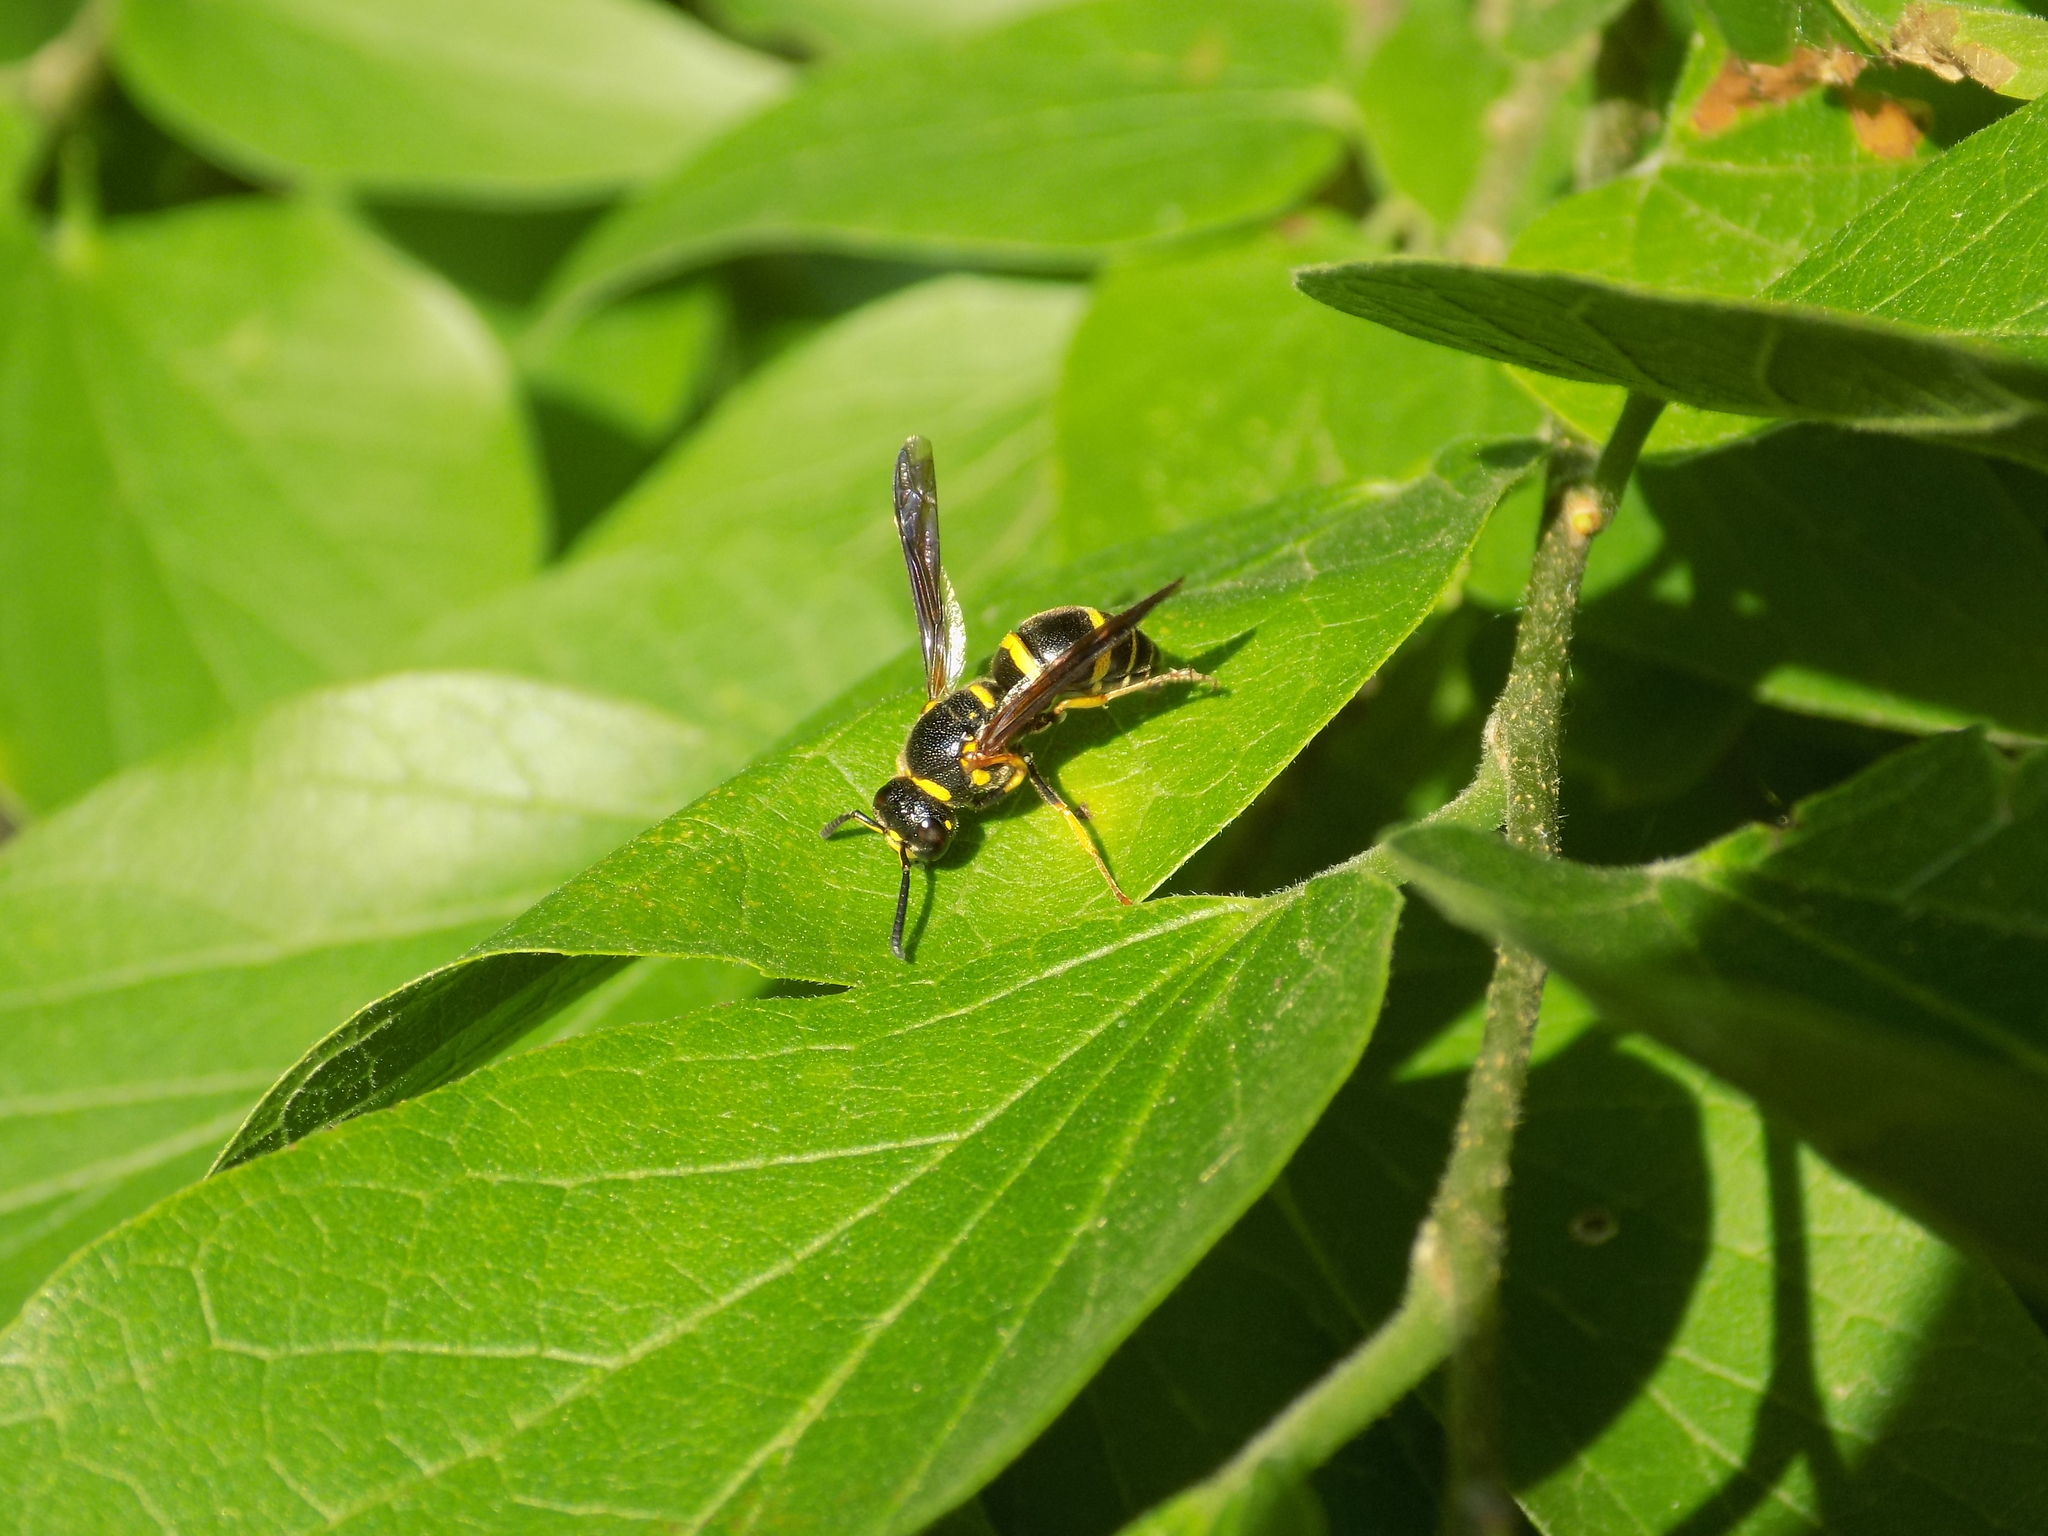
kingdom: Animalia
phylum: Arthropoda
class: Insecta
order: Hymenoptera
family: Eumenidae
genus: Euodynerus
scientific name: Euodynerus
